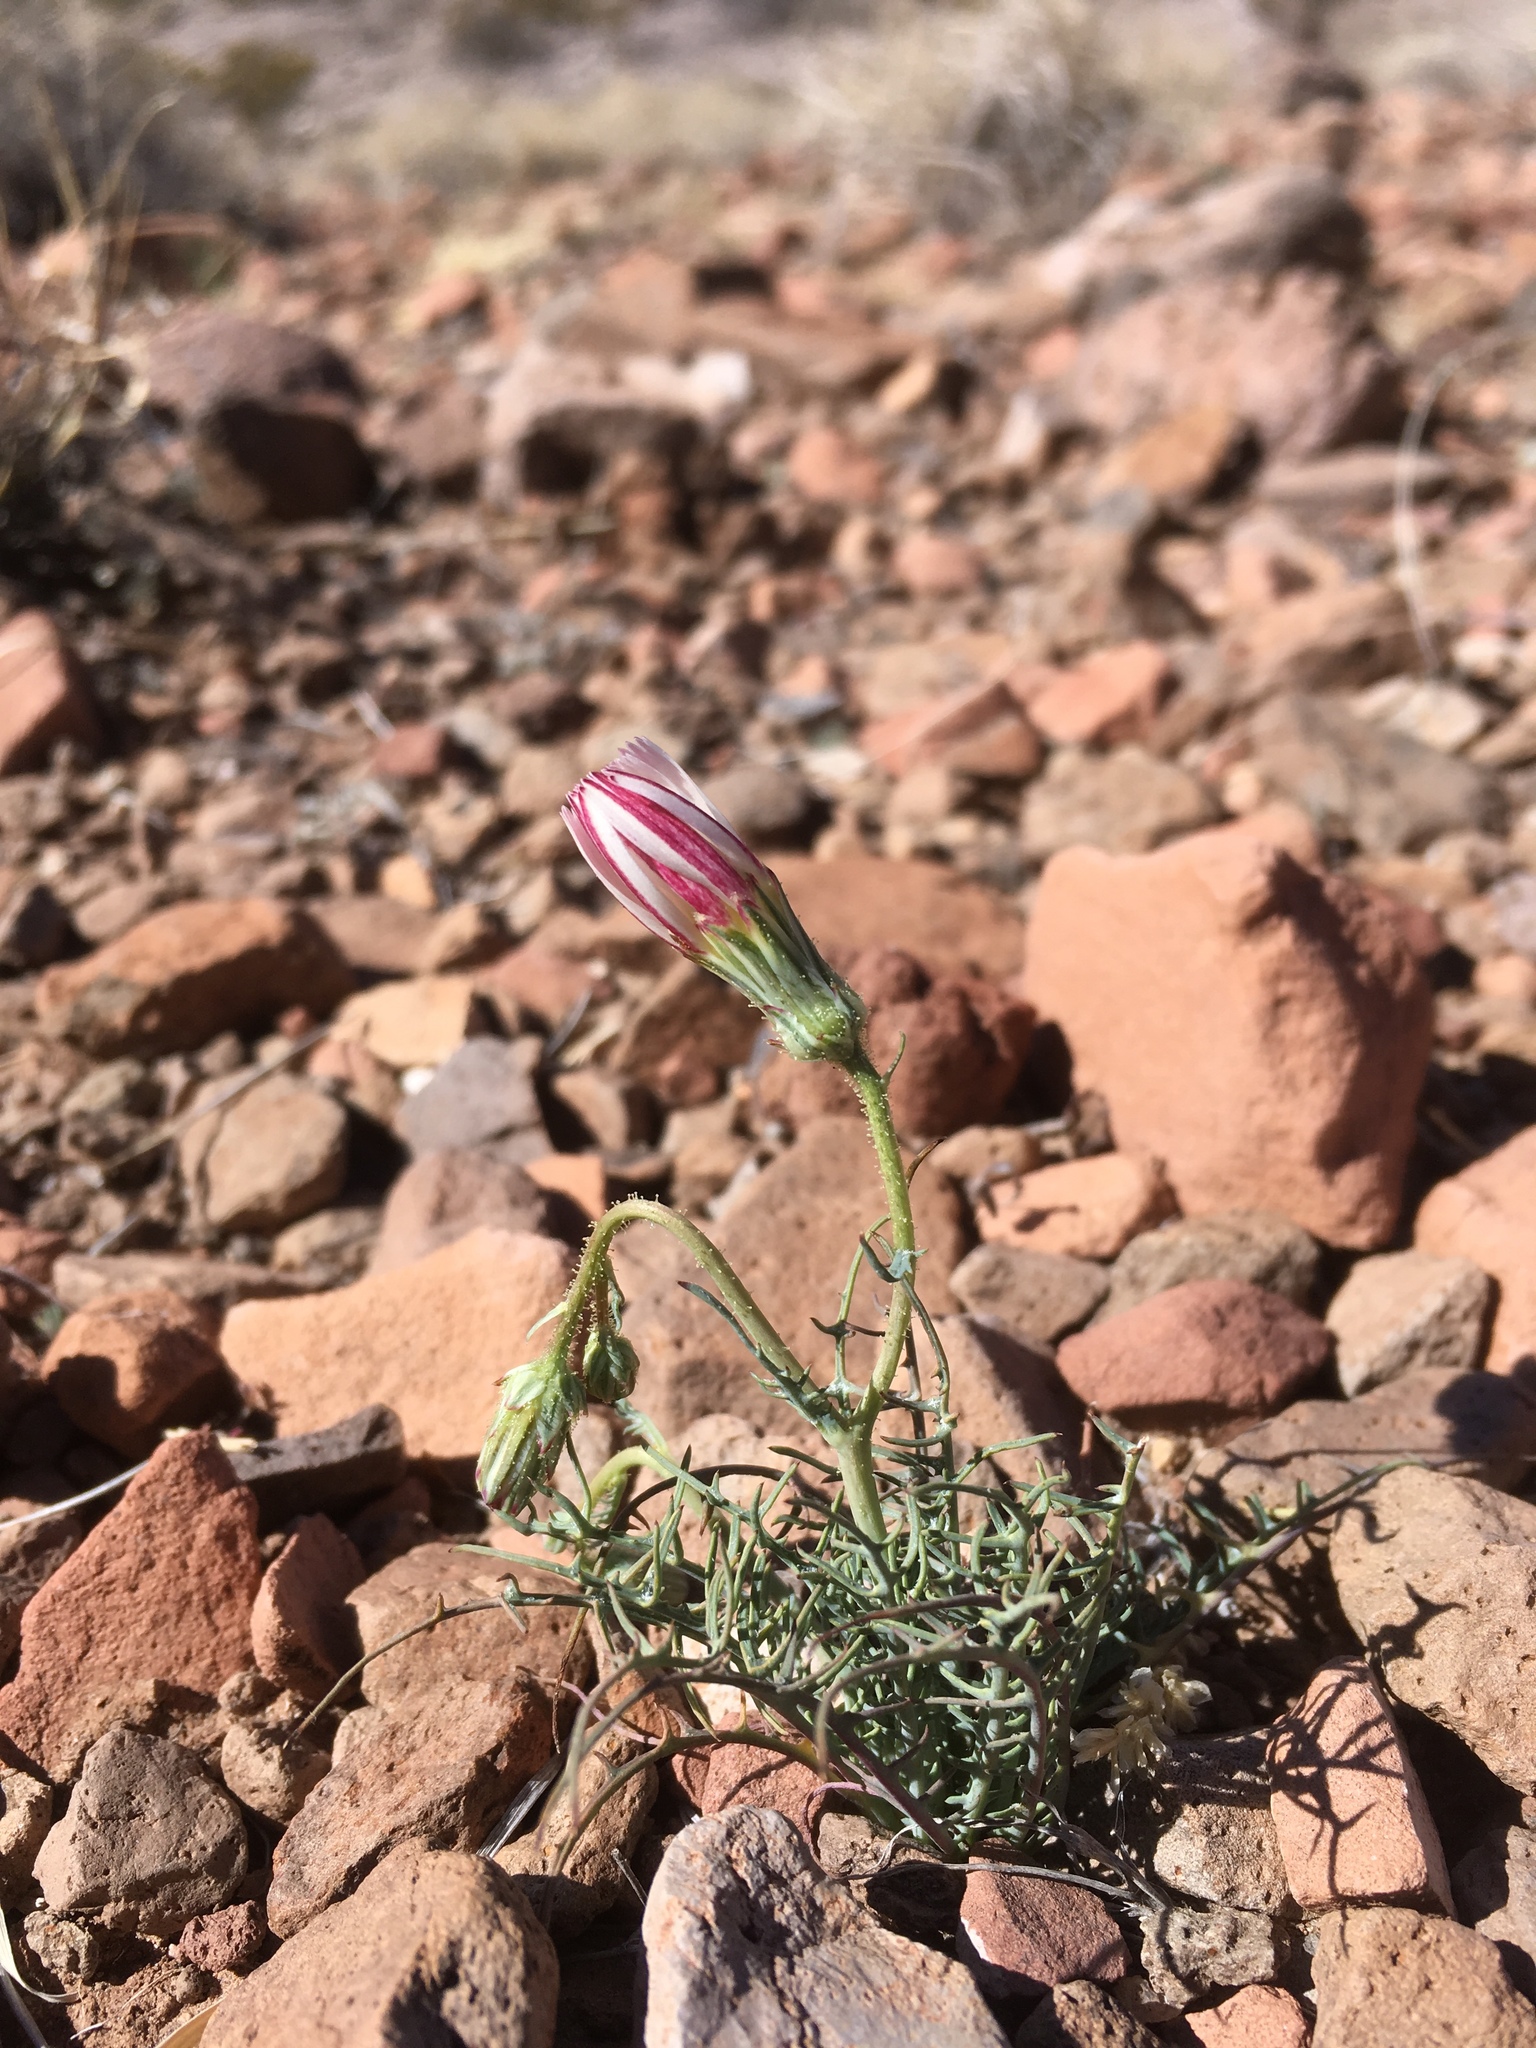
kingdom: Plantae
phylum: Tracheophyta
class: Magnoliopsida
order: Asterales
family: Asteraceae
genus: Calycoseris
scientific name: Calycoseris wrightii
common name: White tackstem
